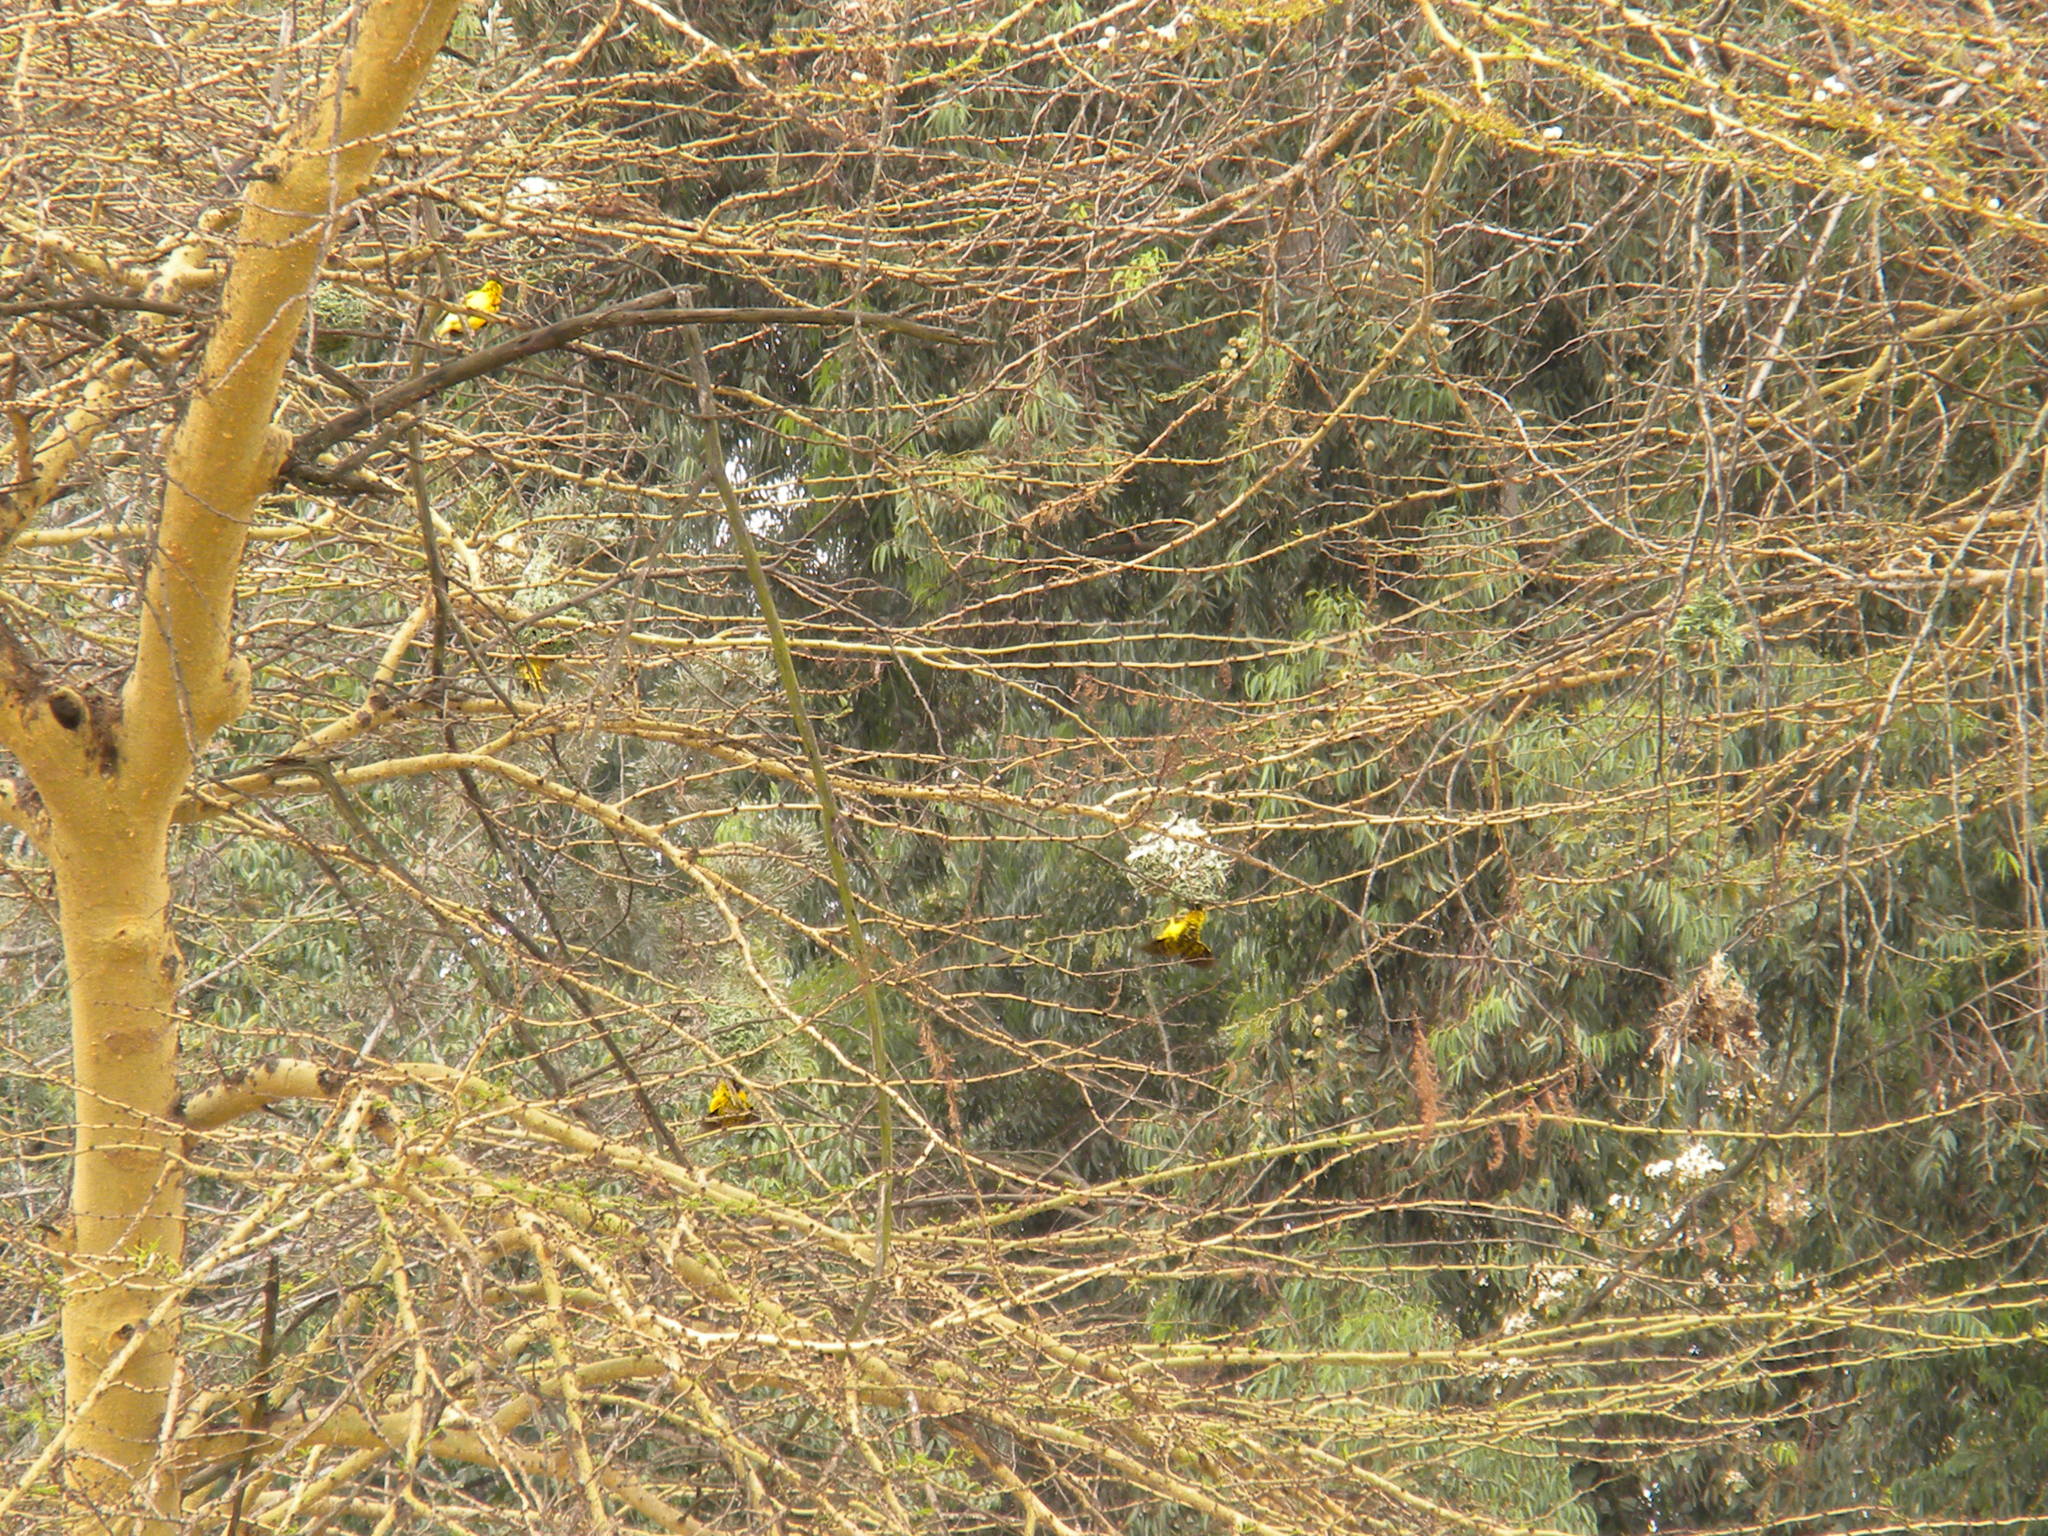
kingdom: Animalia
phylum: Chordata
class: Aves
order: Passeriformes
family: Ploceidae
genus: Ploceus
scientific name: Ploceus cucullatus
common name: Village weaver
